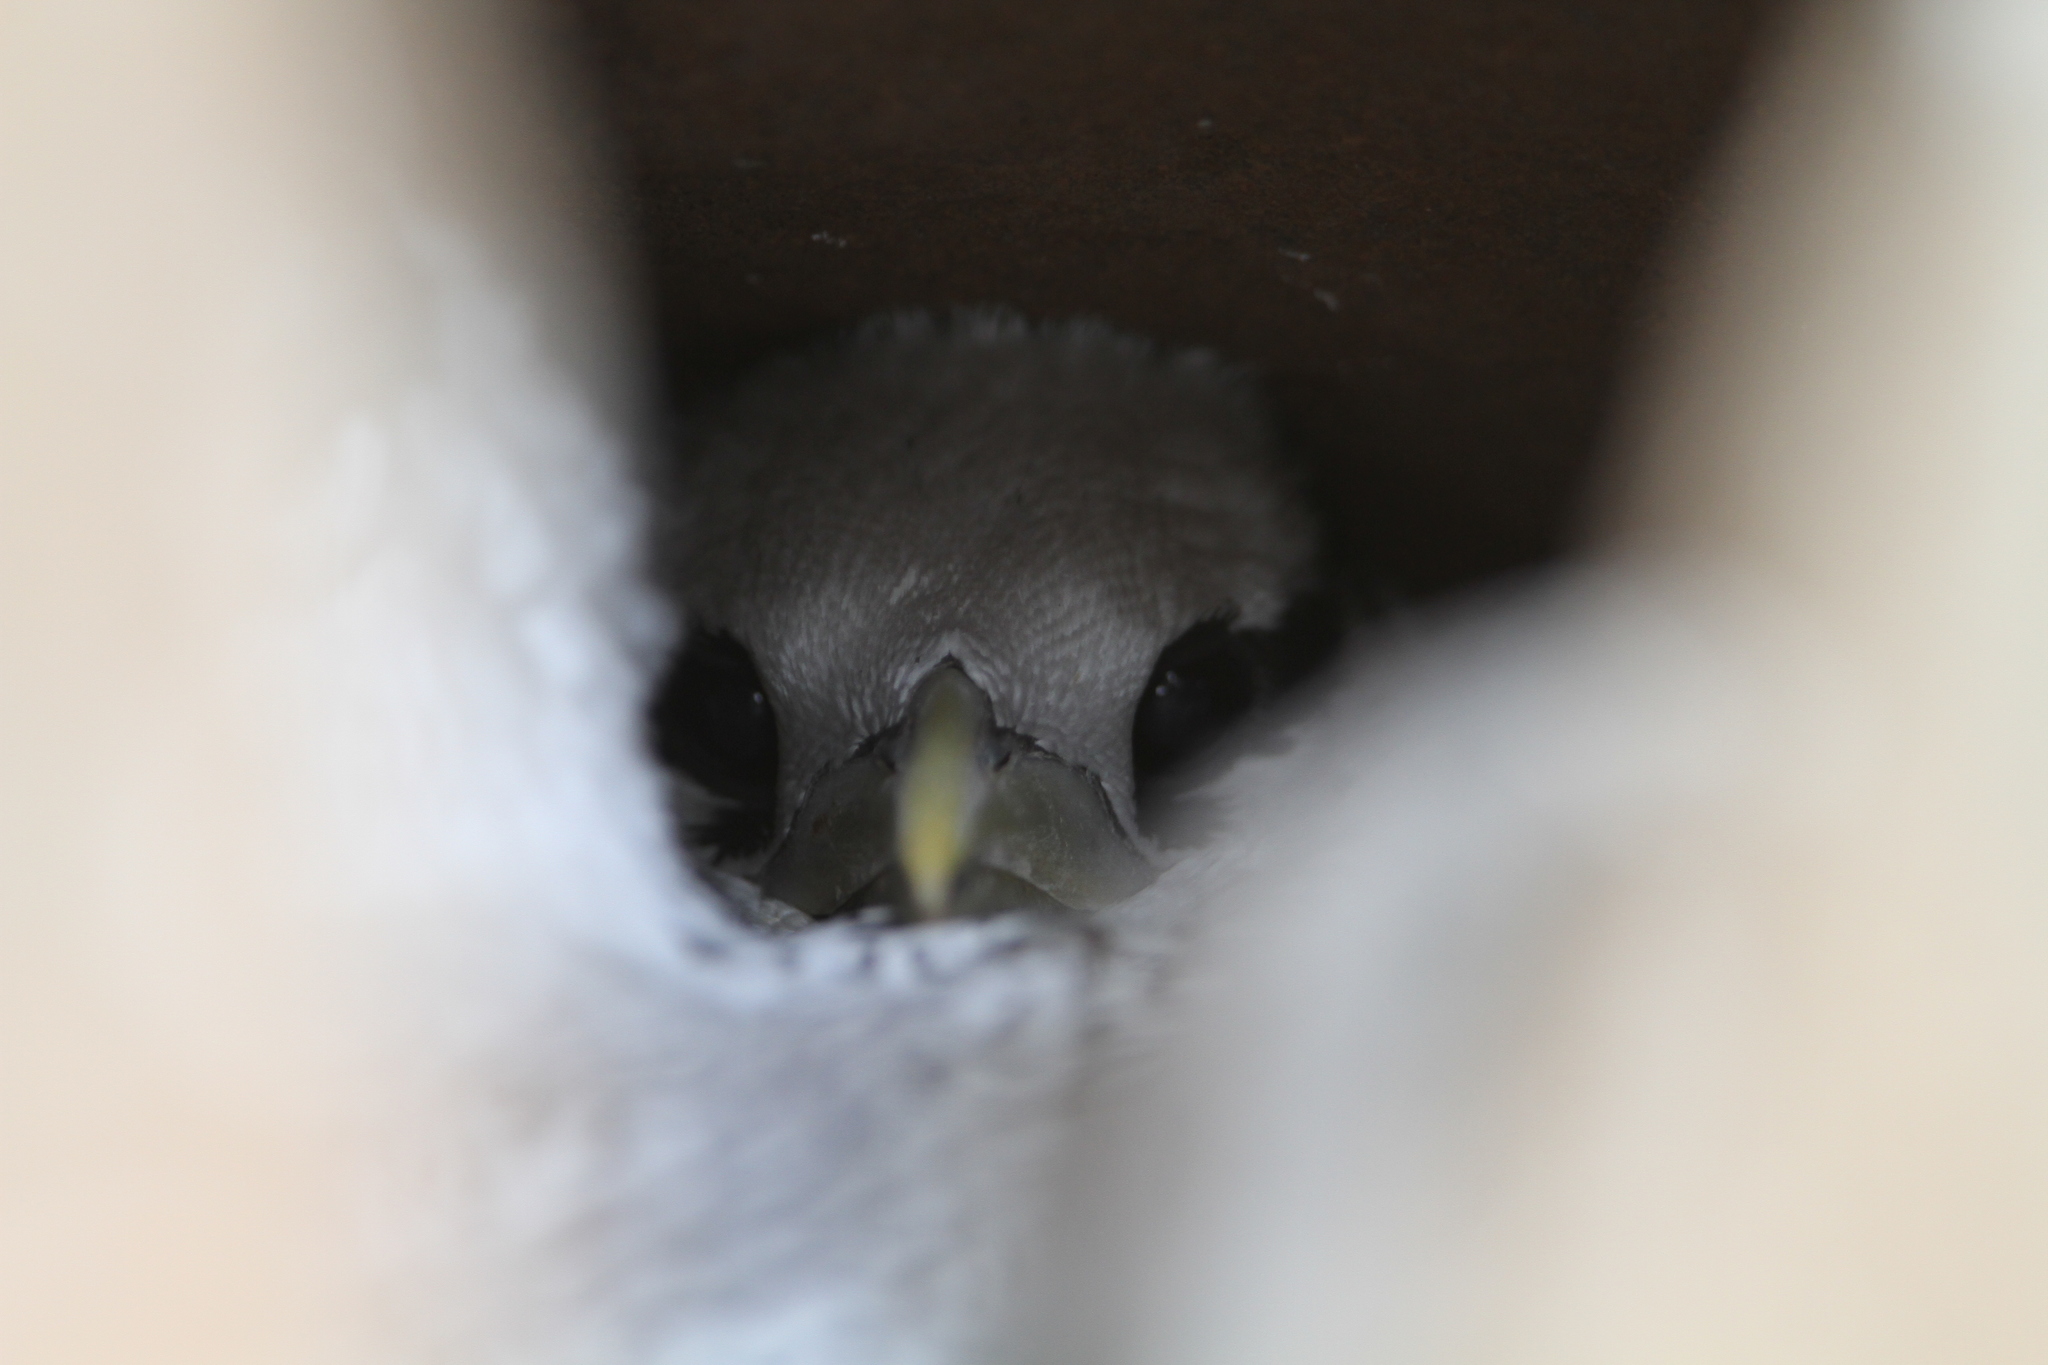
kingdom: Animalia
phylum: Chordata
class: Aves
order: Phaethontiformes
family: Phaethontidae
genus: Phaethon
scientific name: Phaethon aethereus
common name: Red-billed tropicbird
